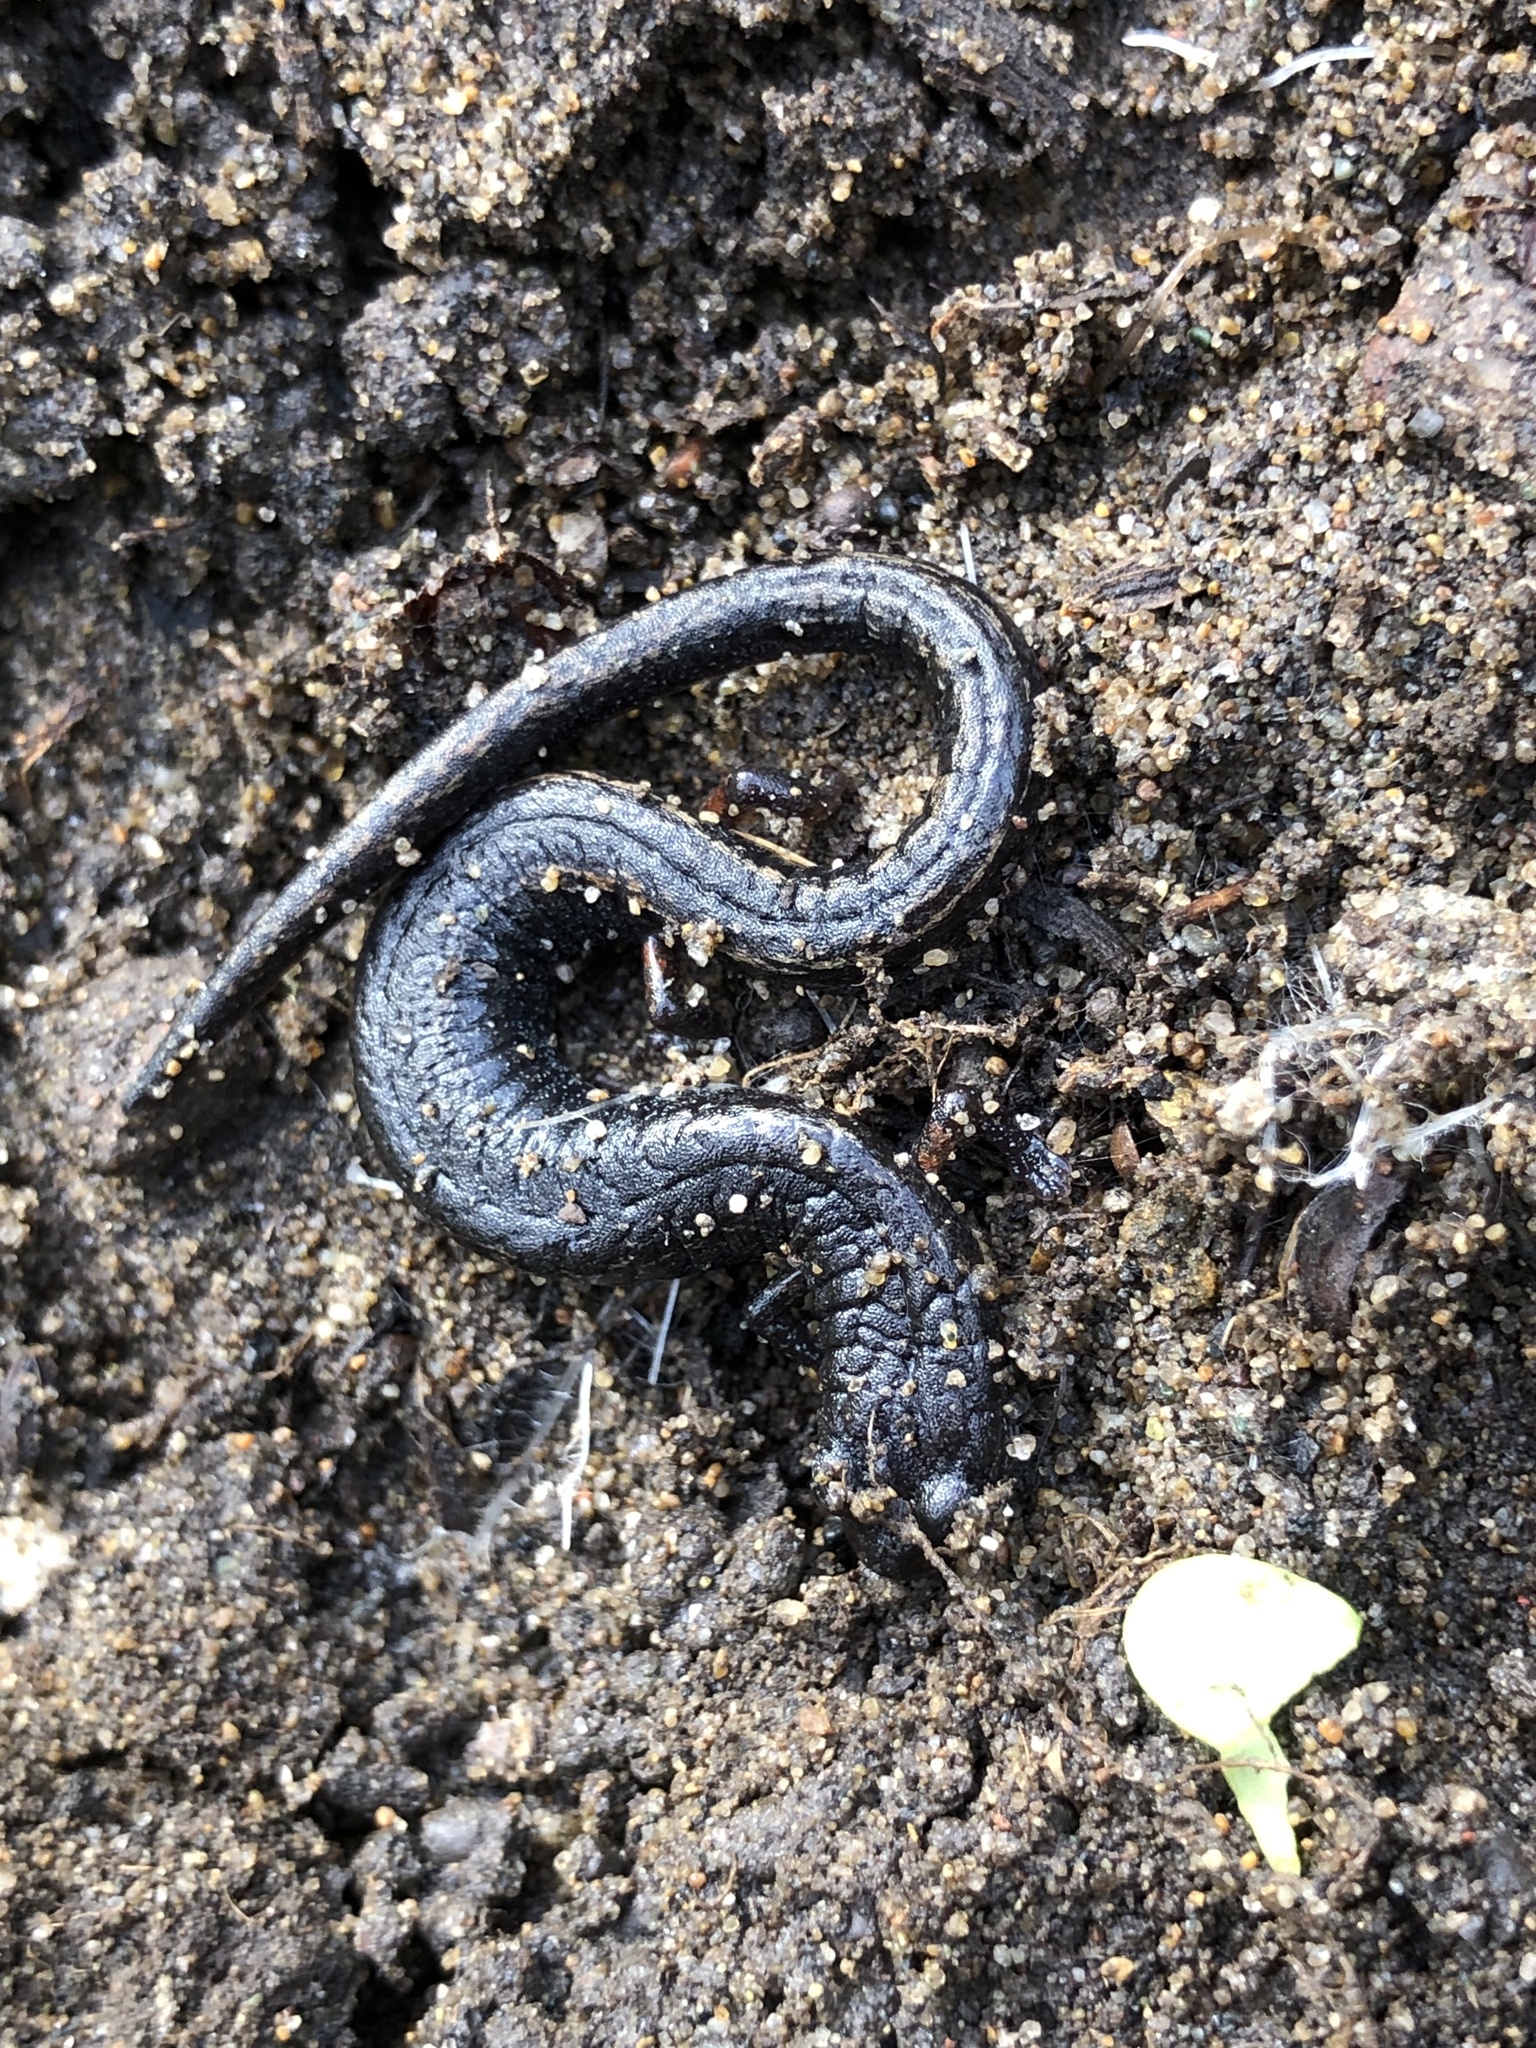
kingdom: Animalia
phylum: Chordata
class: Amphibia
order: Caudata
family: Plethodontidae
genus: Batrachoseps
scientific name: Batrachoseps attenuatus
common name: California slender salamander
